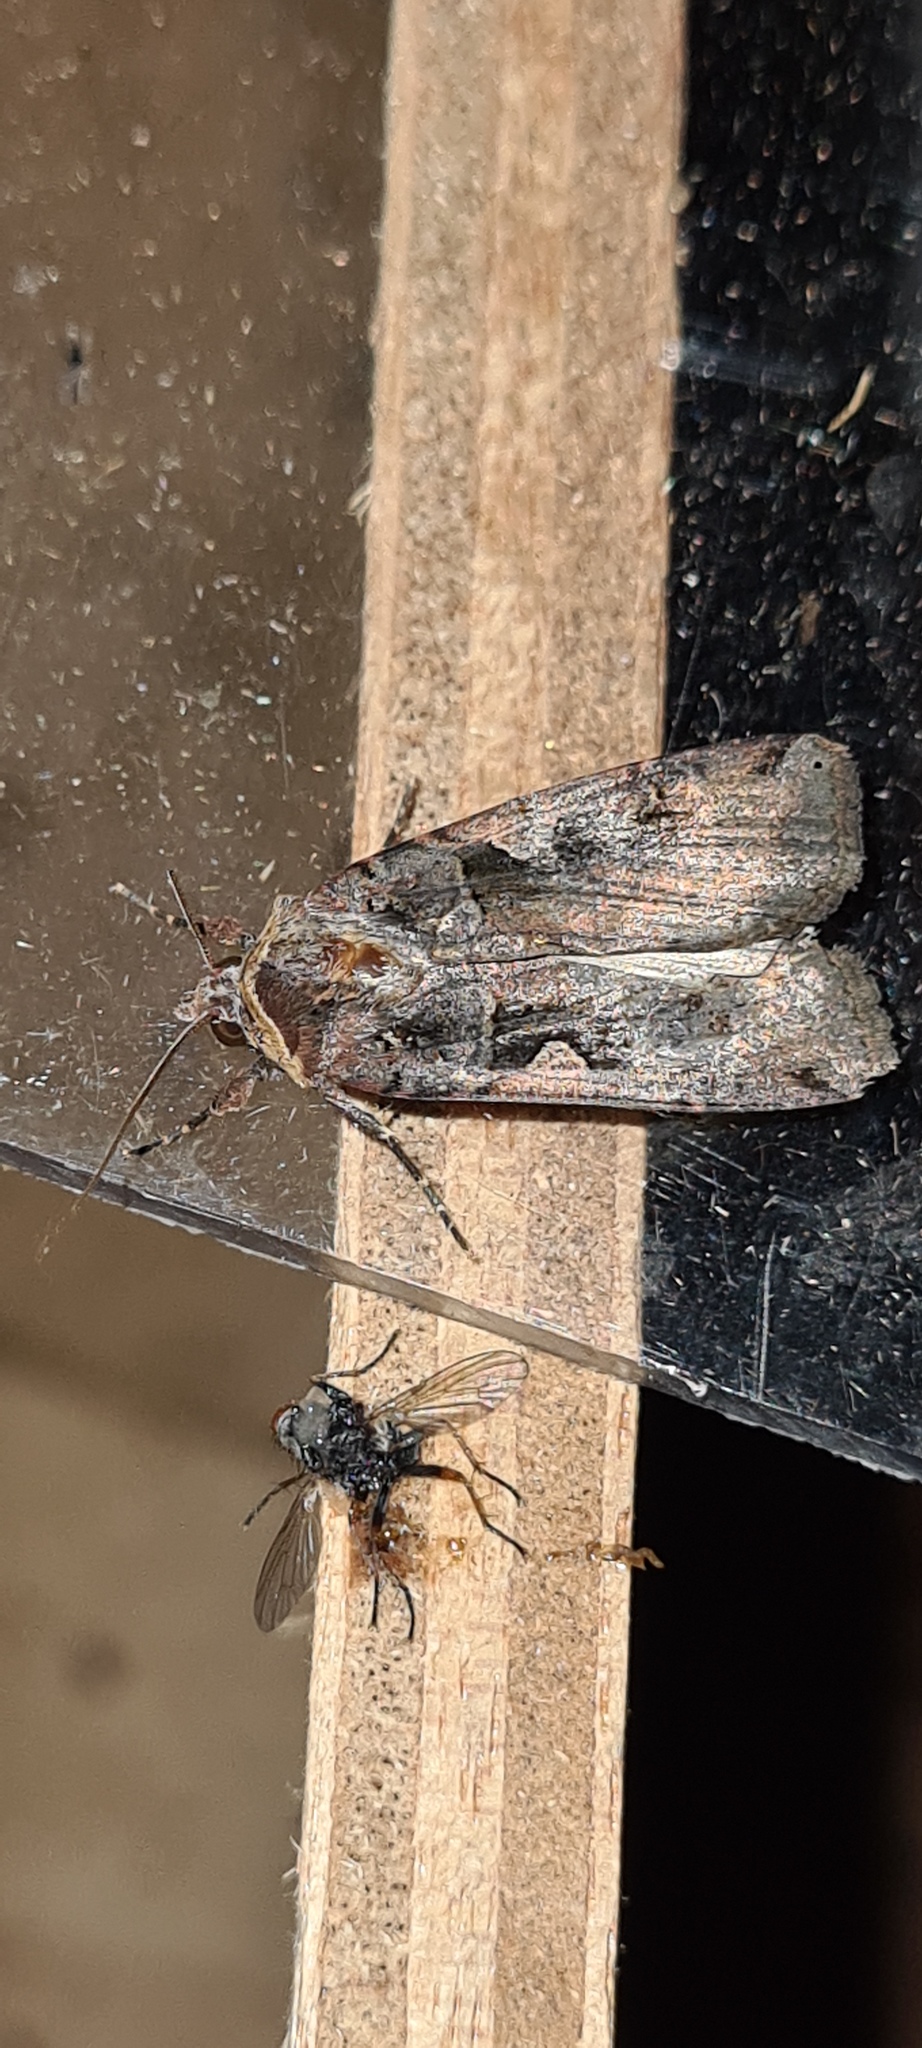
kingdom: Animalia
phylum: Arthropoda
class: Insecta
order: Lepidoptera
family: Noctuidae
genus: Xestia
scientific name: Xestia c-nigrum
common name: Setaceous hebrew character
